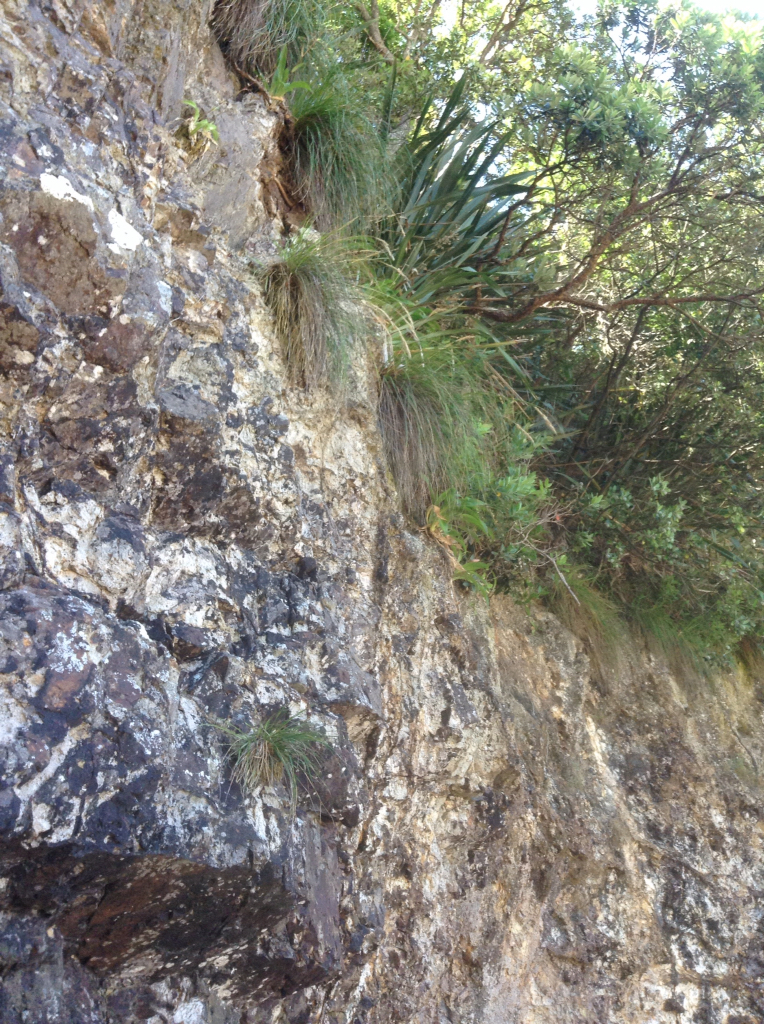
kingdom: Plantae
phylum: Tracheophyta
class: Liliopsida
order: Poales
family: Poaceae
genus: Chionochloa
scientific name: Chionochloa bromoides
